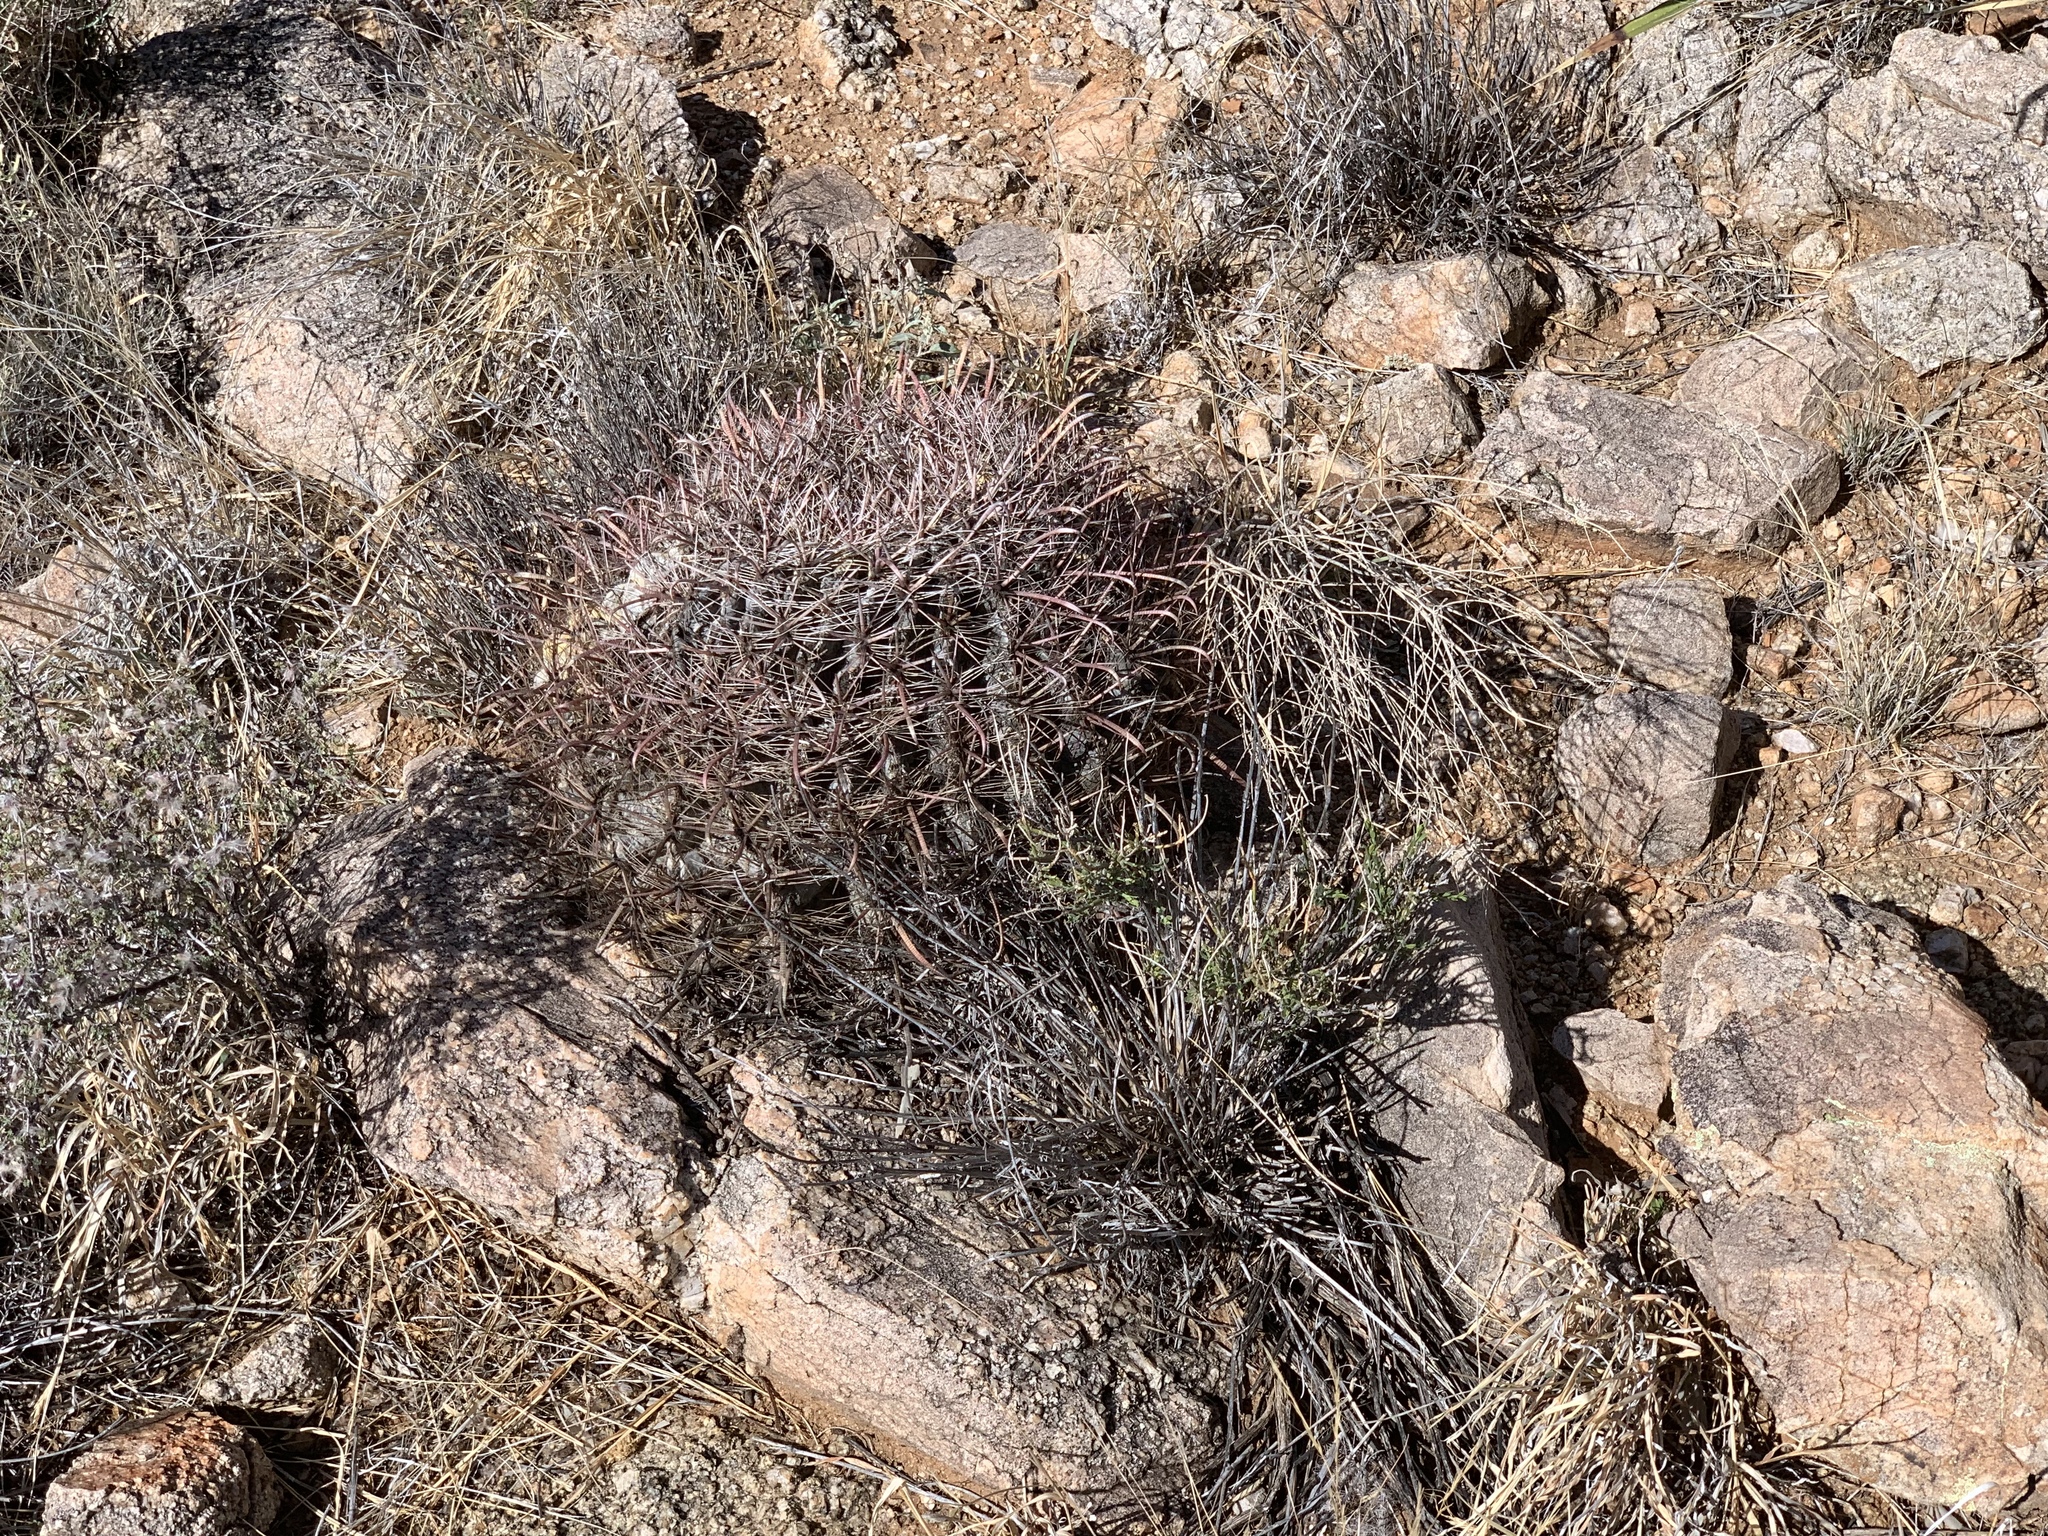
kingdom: Plantae
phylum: Tracheophyta
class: Magnoliopsida
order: Caryophyllales
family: Cactaceae
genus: Ferocactus
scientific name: Ferocactus wislizeni
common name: Candy barrel cactus
